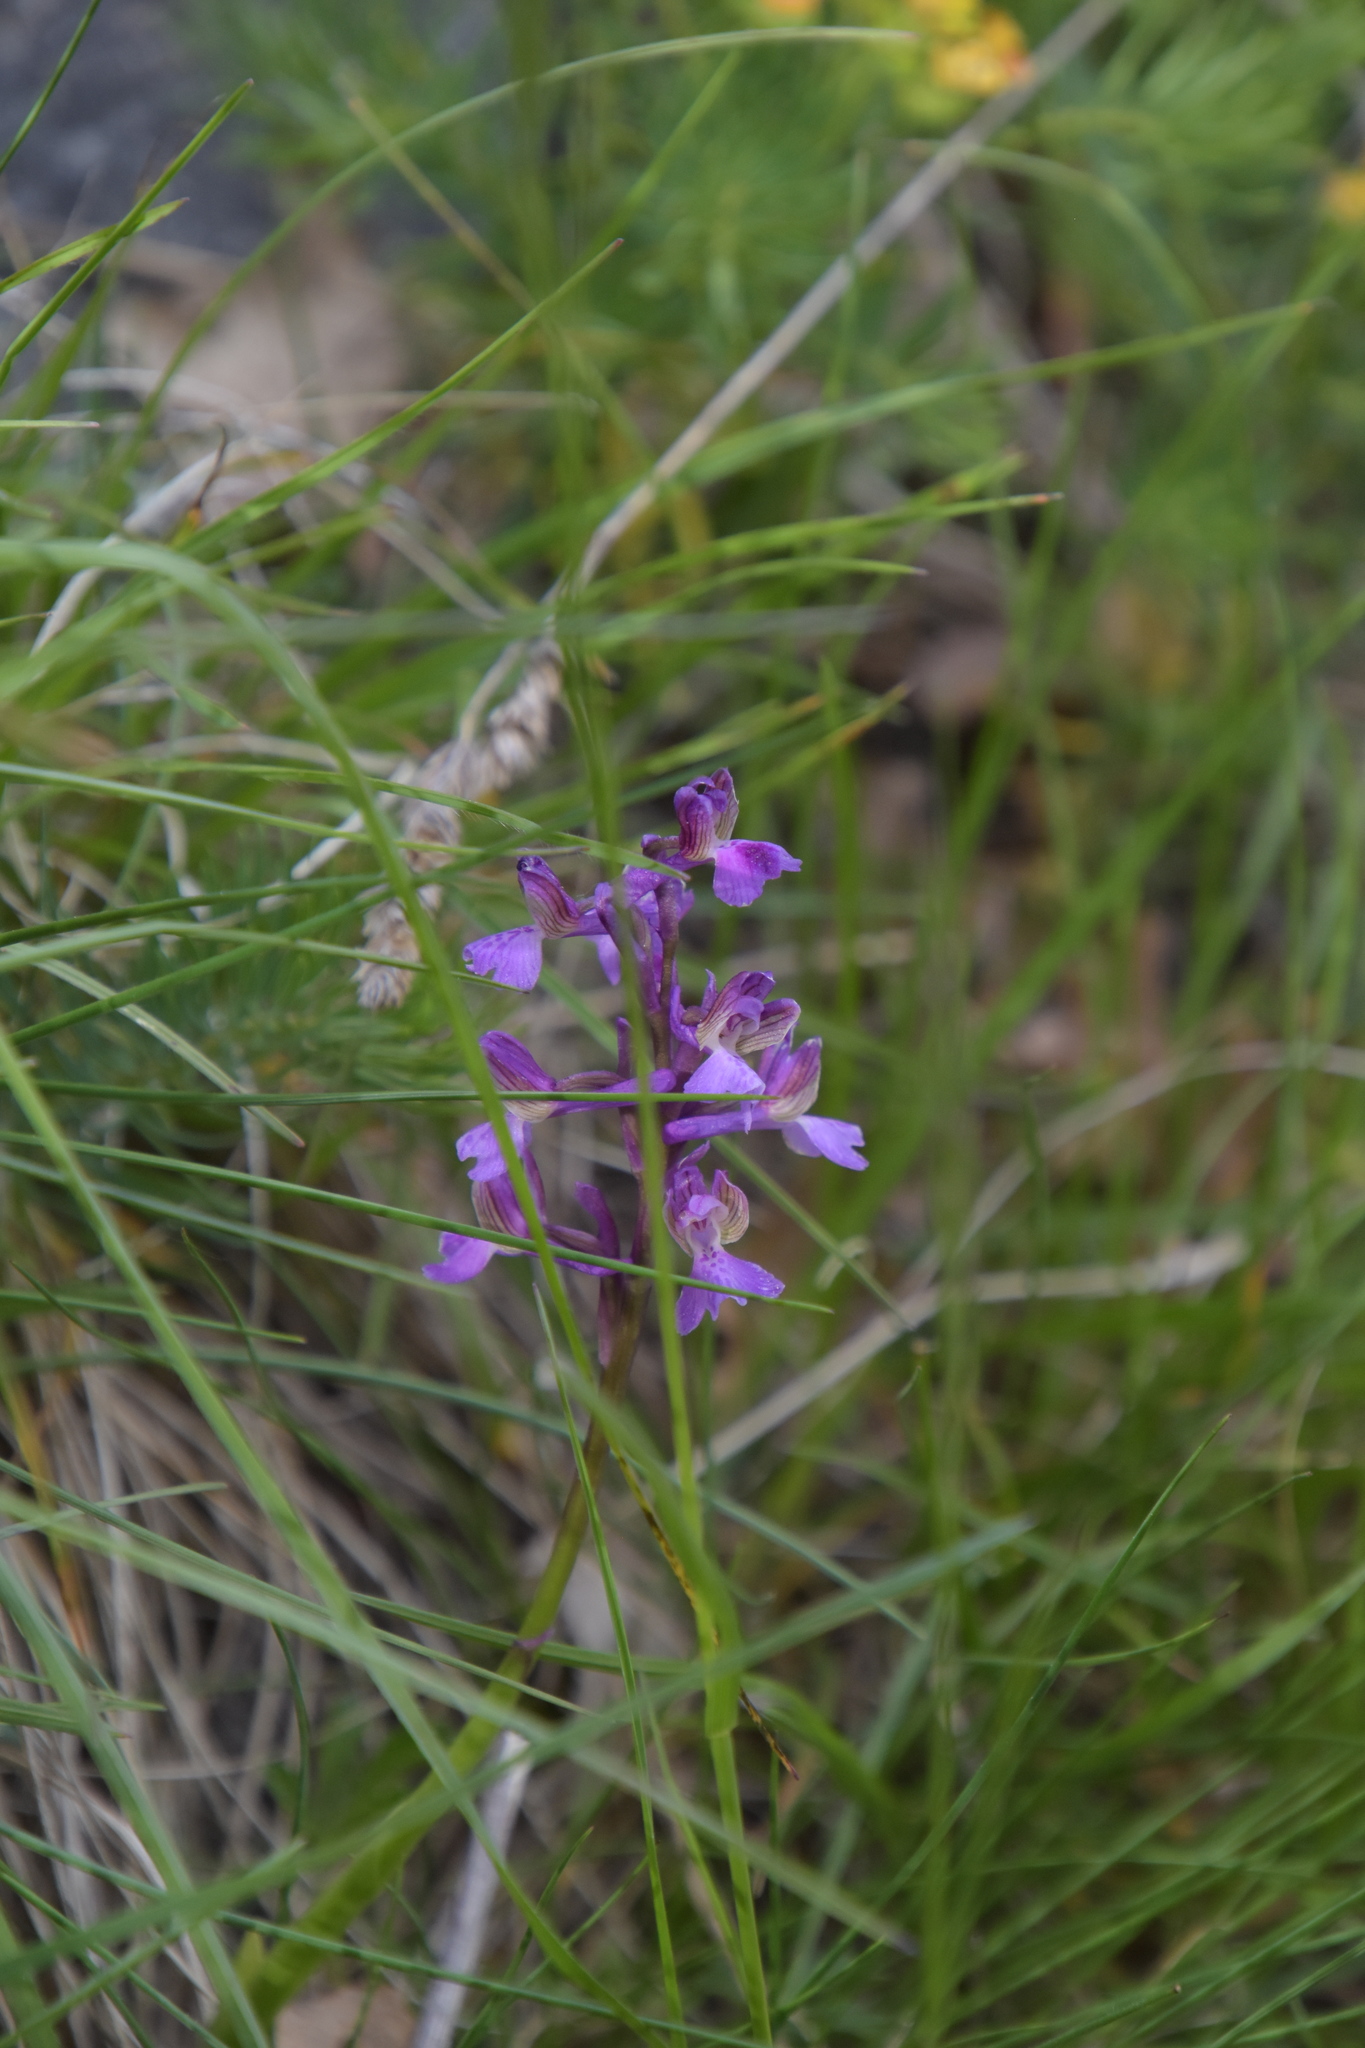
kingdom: Plantae
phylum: Tracheophyta
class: Liliopsida
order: Asparagales
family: Orchidaceae
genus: Anacamptis
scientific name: Anacamptis morio
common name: Green-winged orchid
